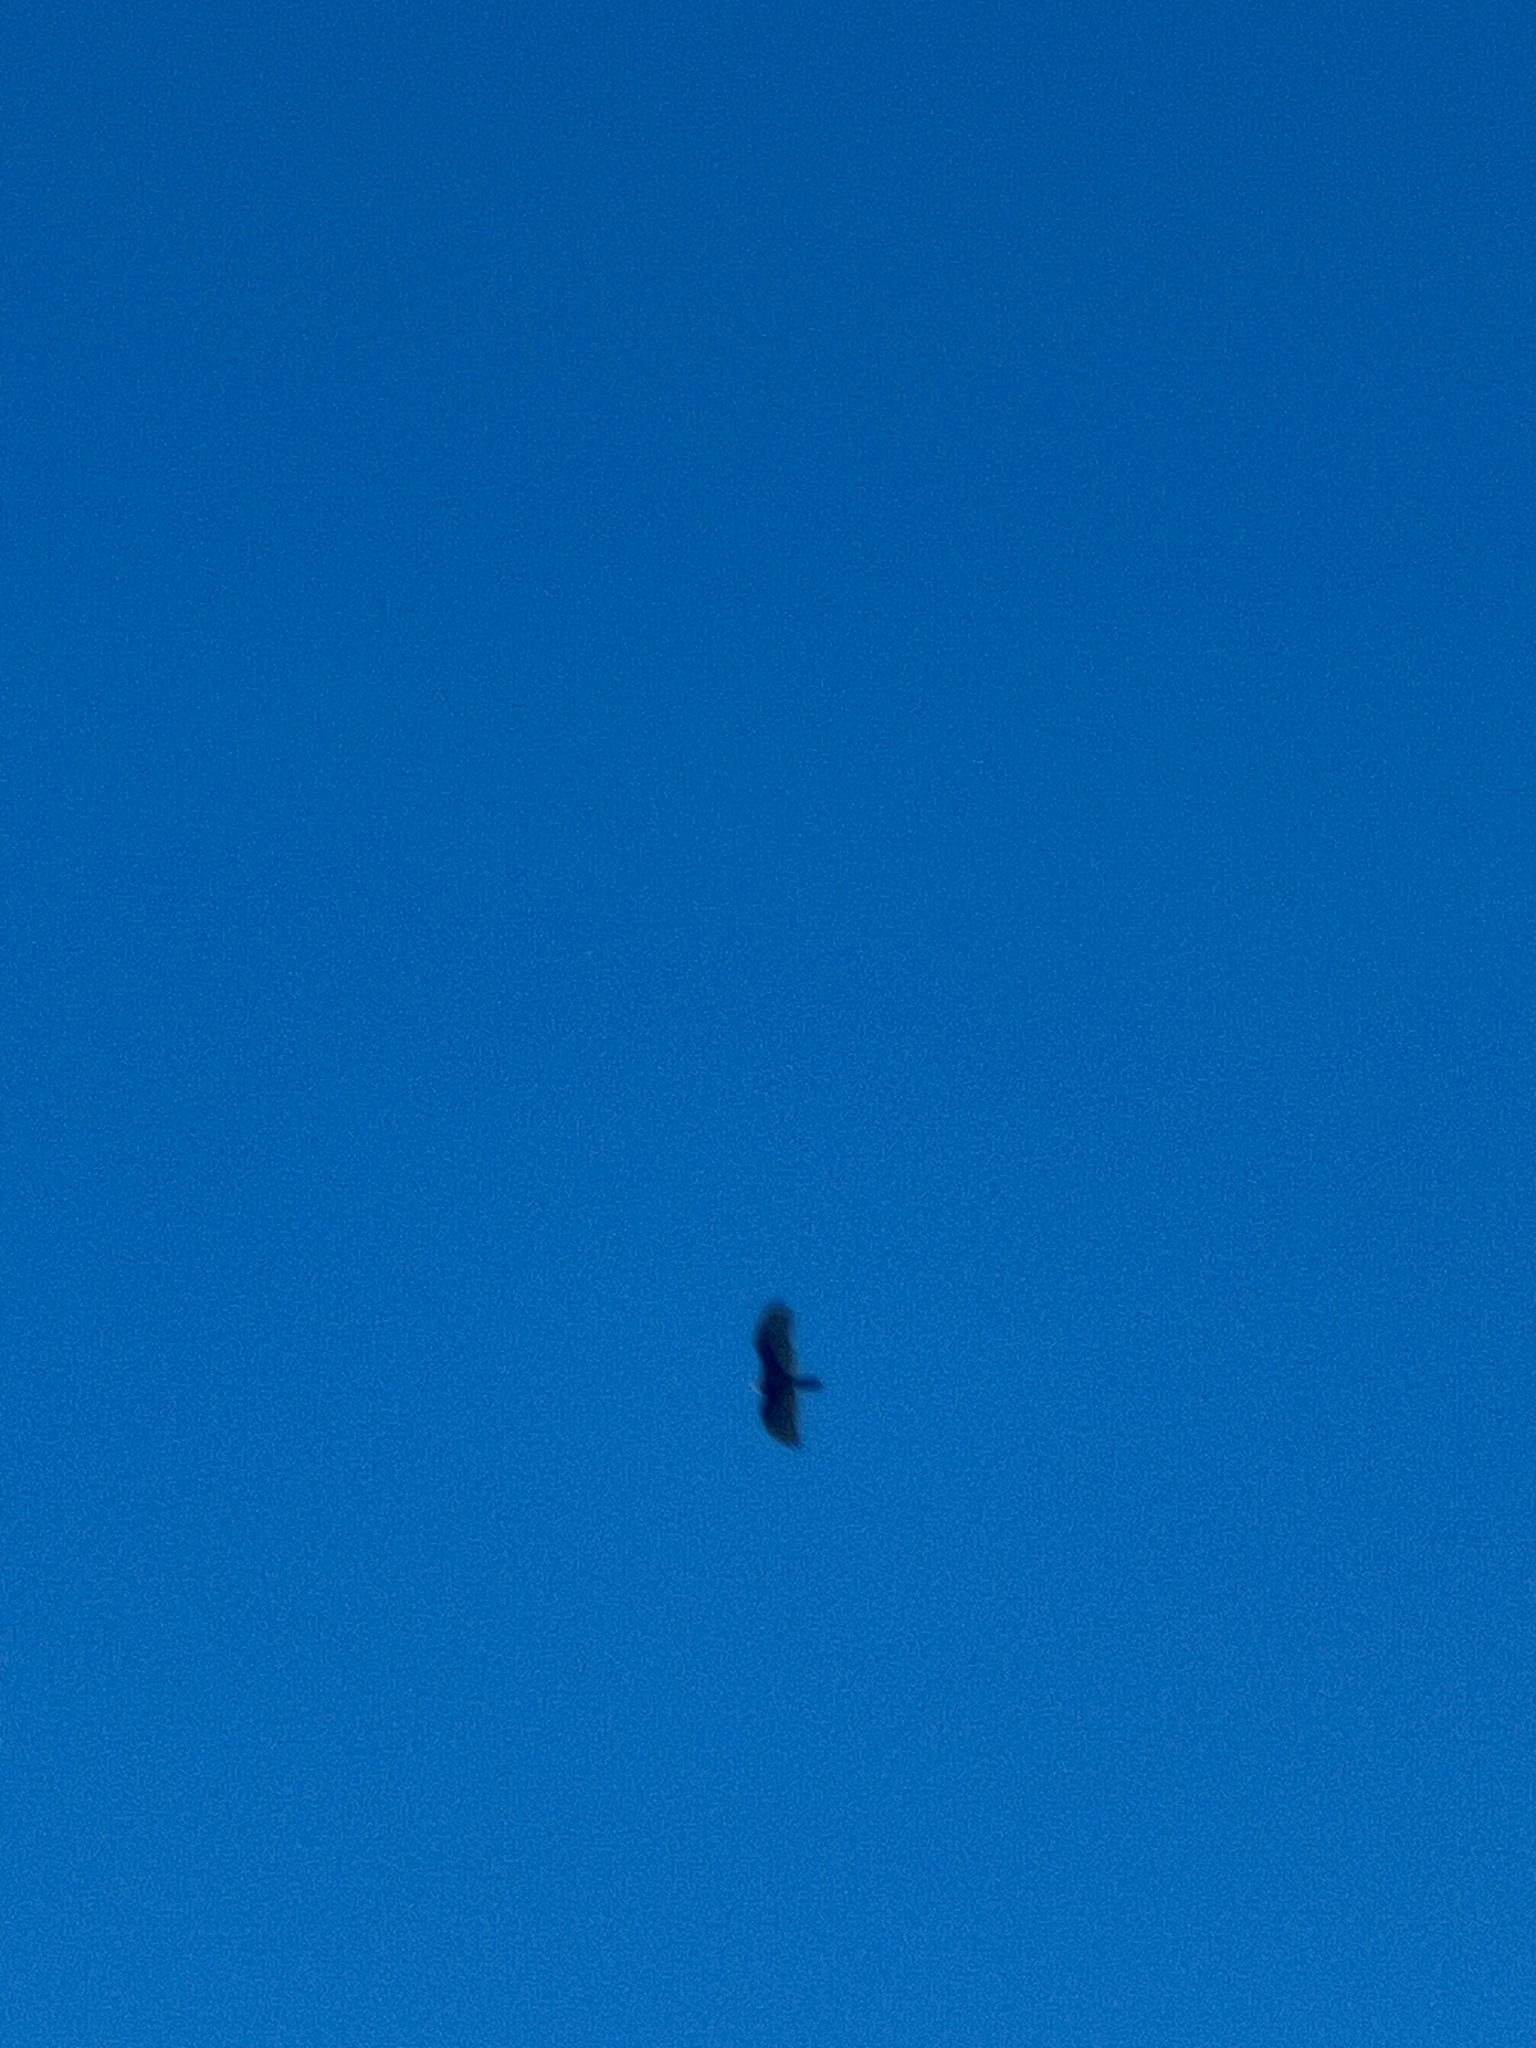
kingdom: Animalia
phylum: Chordata
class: Aves
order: Accipitriformes
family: Cathartidae
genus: Cathartes
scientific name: Cathartes aura
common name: Turkey vulture
